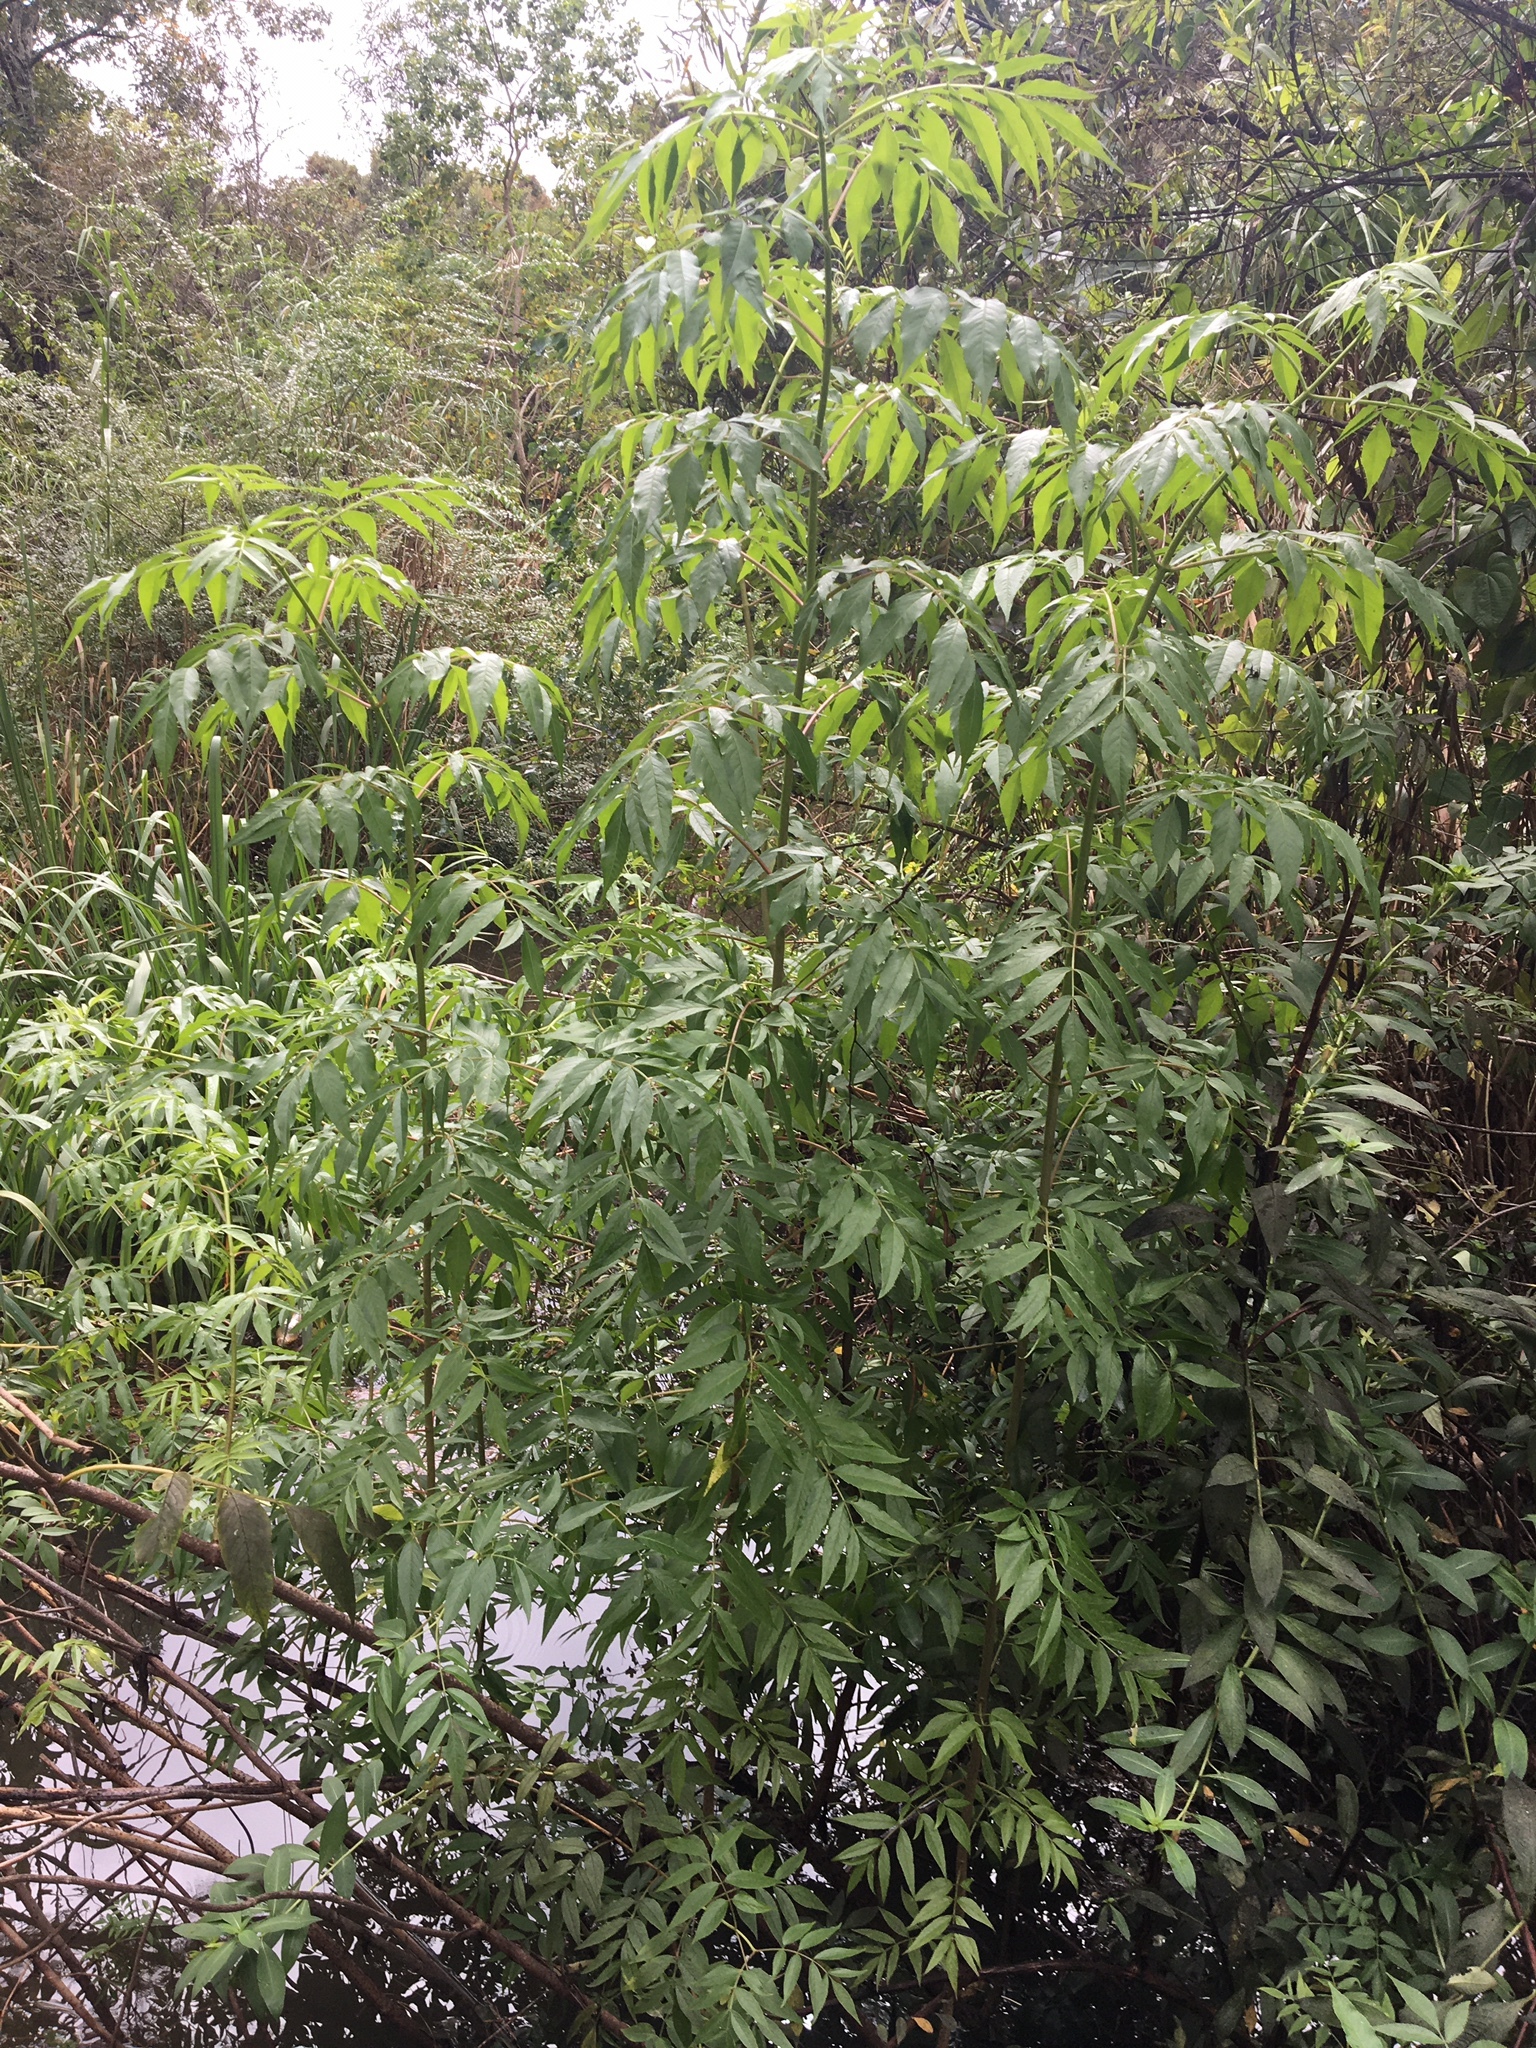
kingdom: Plantae
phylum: Tracheophyta
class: Magnoliopsida
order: Dipsacales
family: Viburnaceae
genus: Sambucus
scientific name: Sambucus canadensis
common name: American elder
